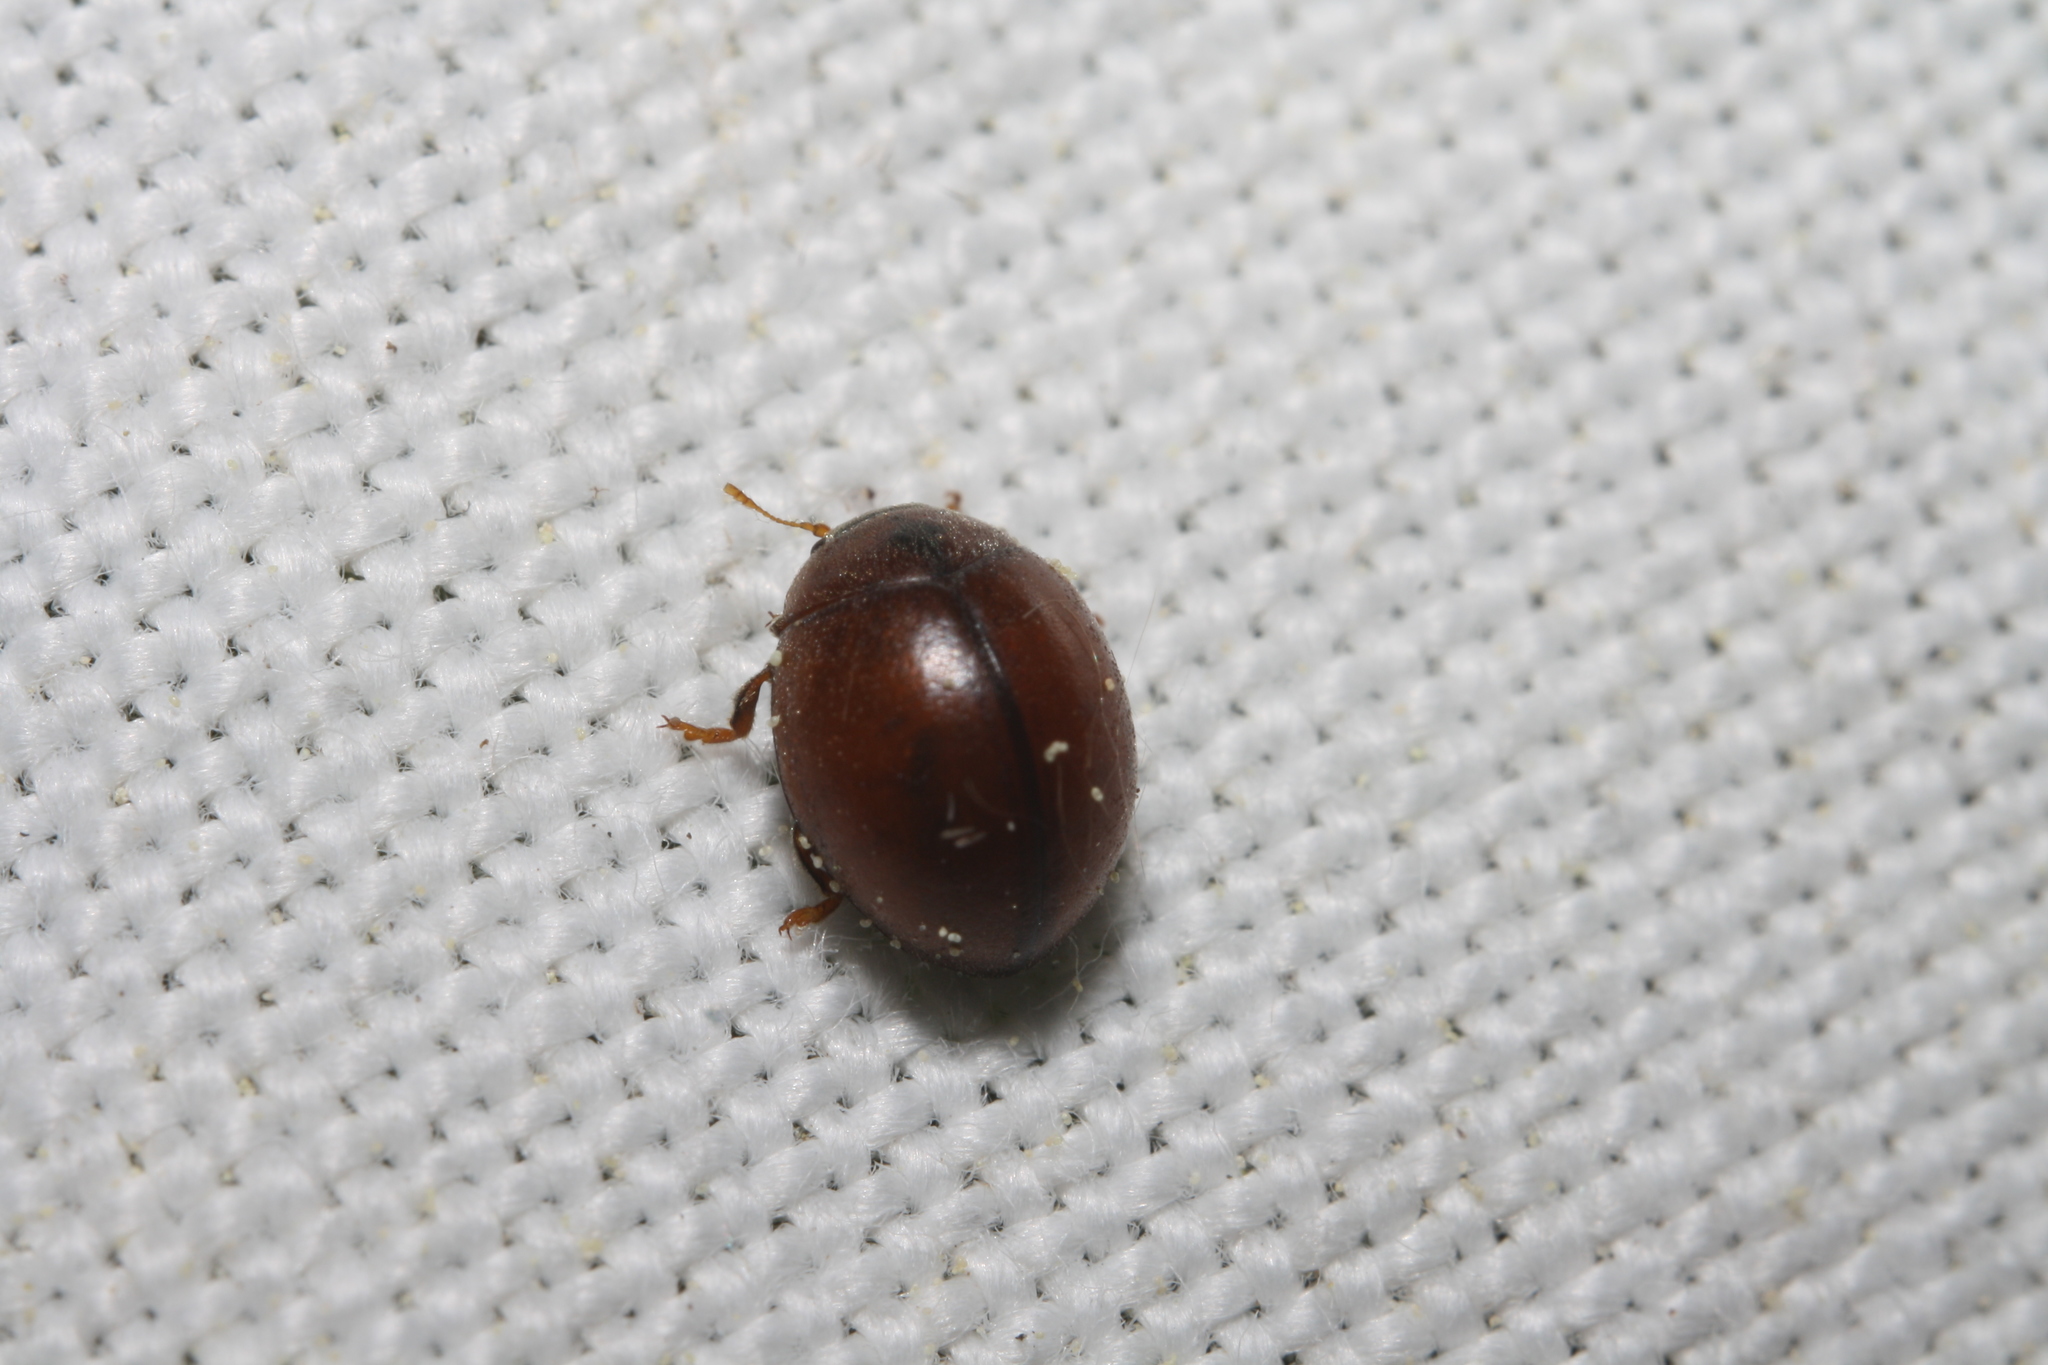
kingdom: Animalia
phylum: Arthropoda
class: Insecta
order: Coleoptera
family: Coccinellidae
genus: Cynegetis
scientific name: Cynegetis impunctata
